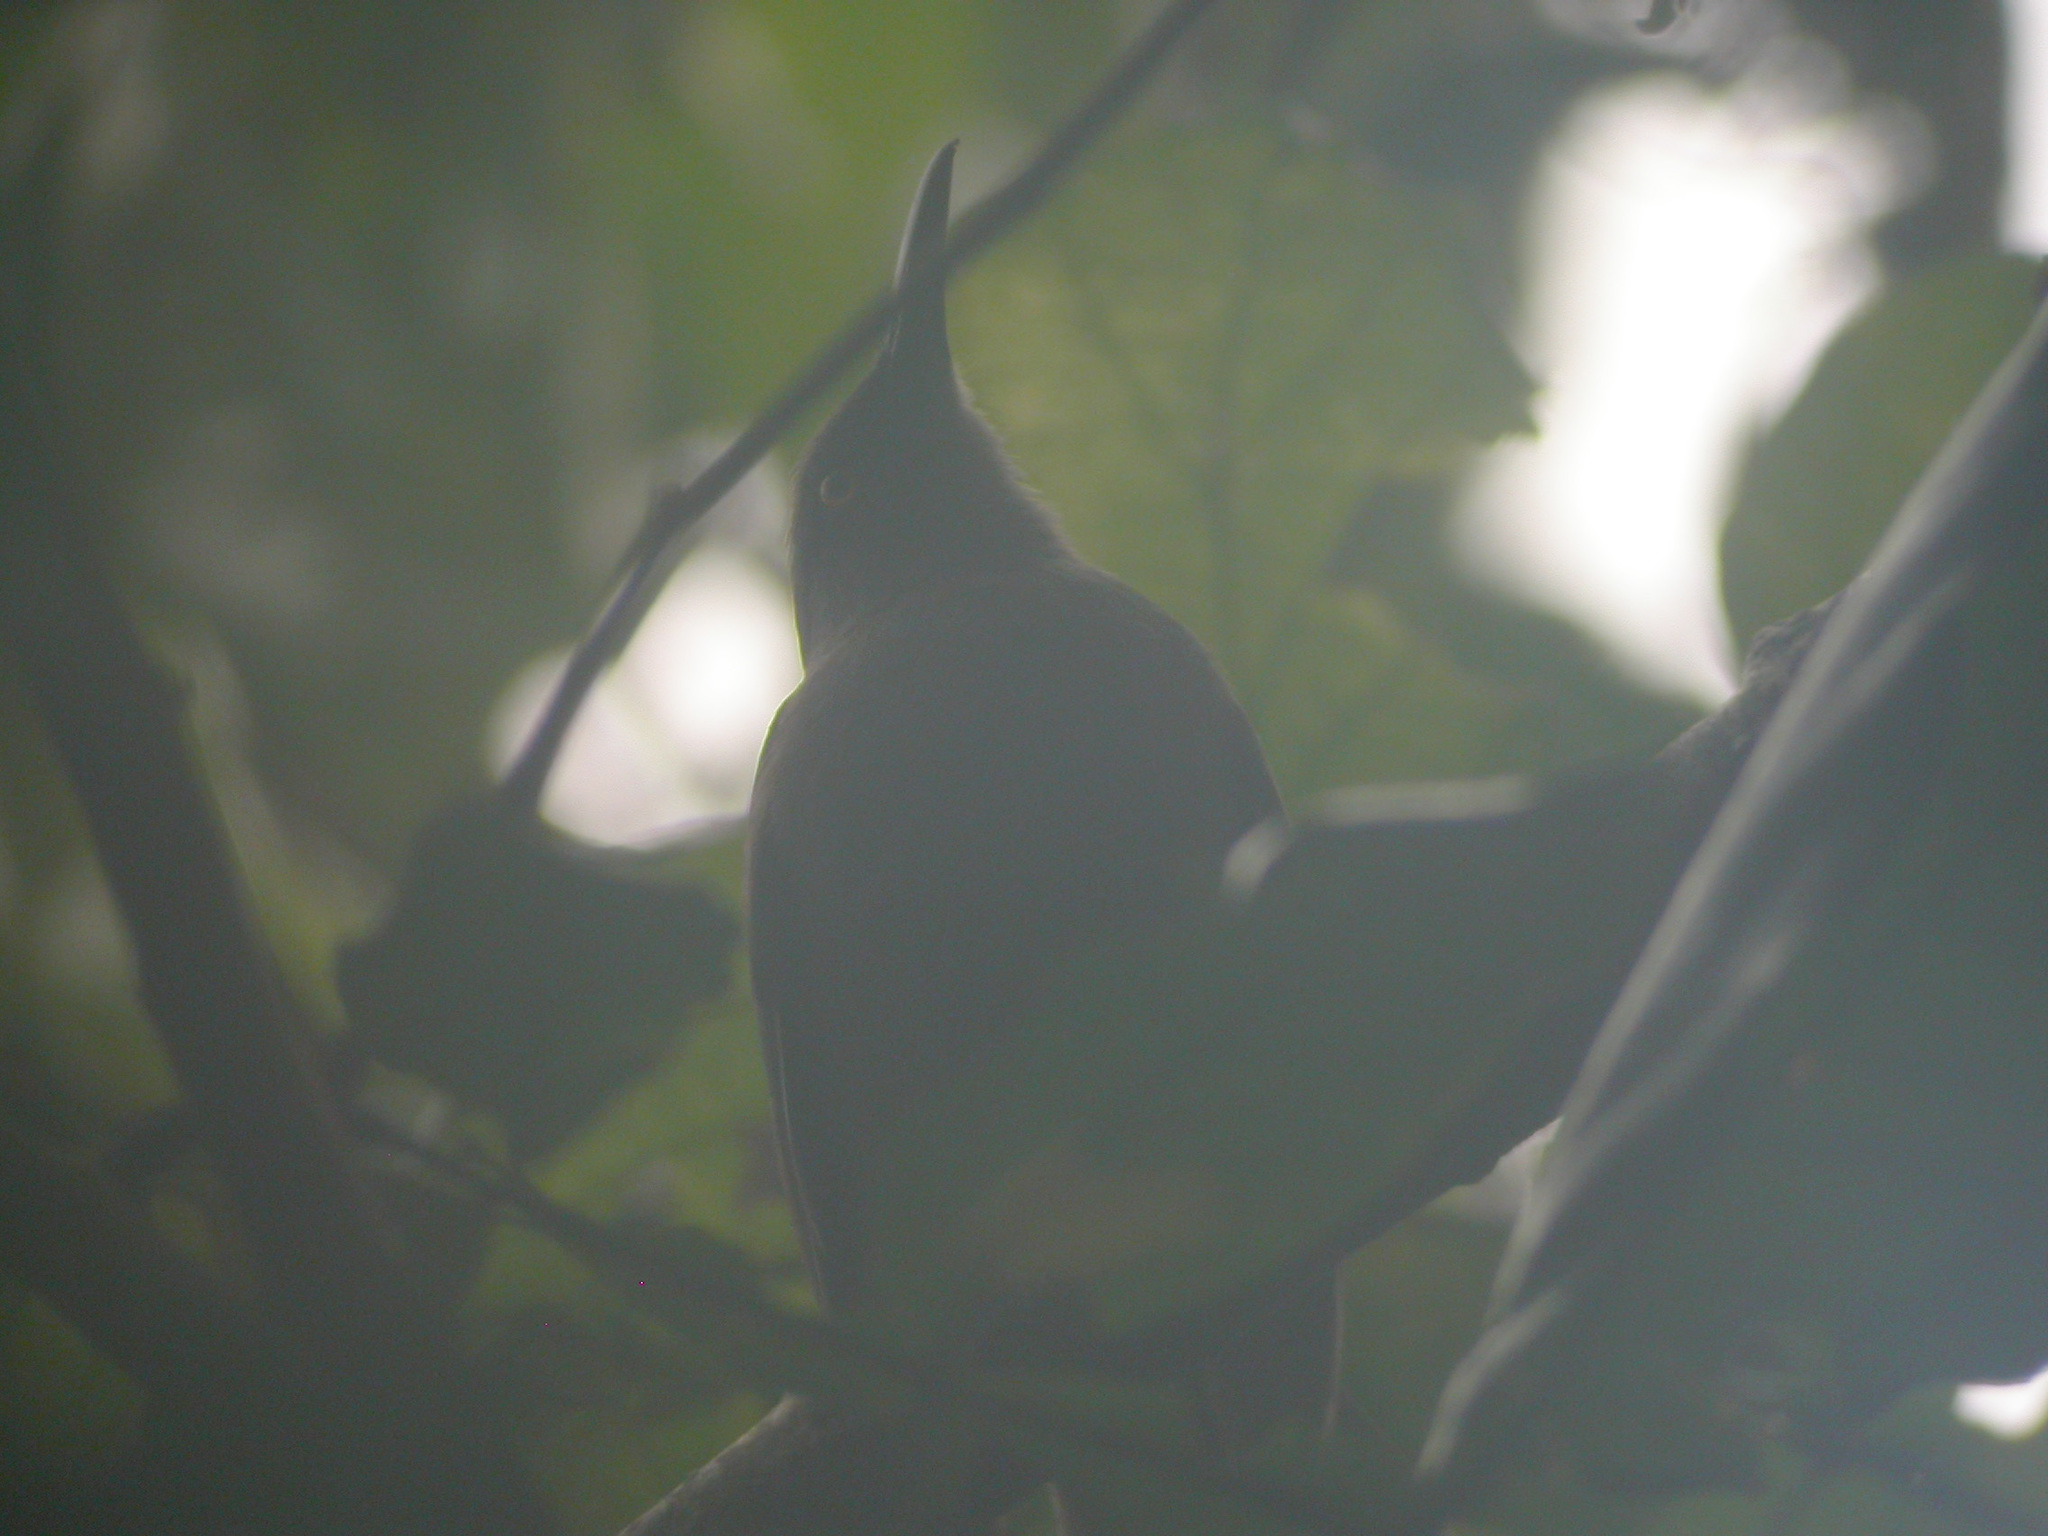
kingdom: Animalia
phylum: Chordata
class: Aves
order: Passeriformes
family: Mimidae
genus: Cinclocerthia
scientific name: Cinclocerthia ruficauda
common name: Brown trembler
